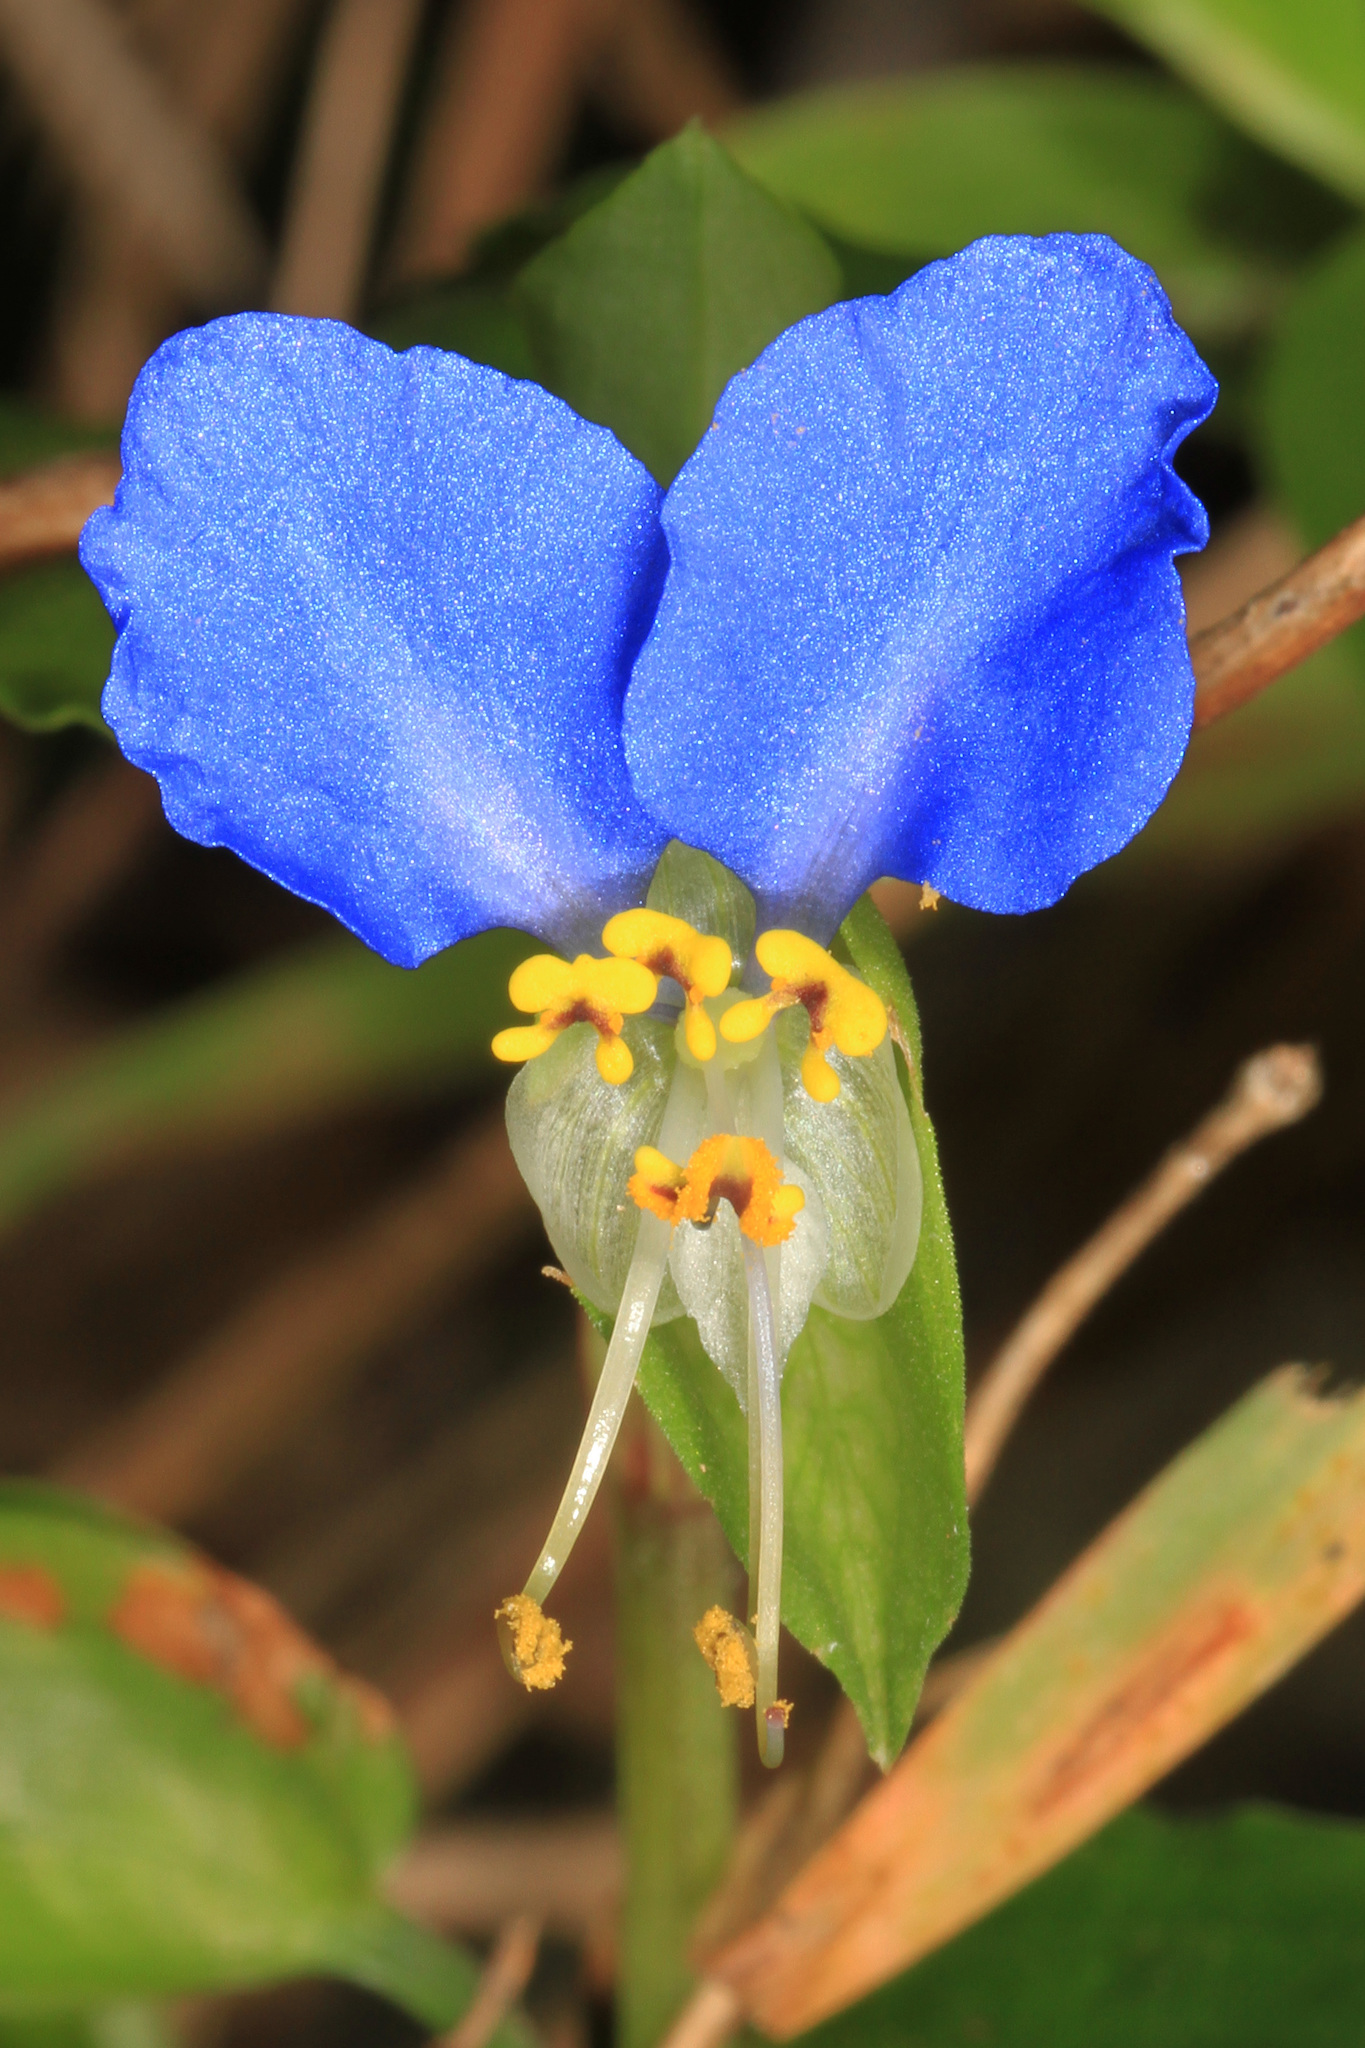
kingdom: Plantae
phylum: Tracheophyta
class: Liliopsida
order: Commelinales
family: Commelinaceae
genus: Commelina
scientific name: Commelina communis
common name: Asiatic dayflower
